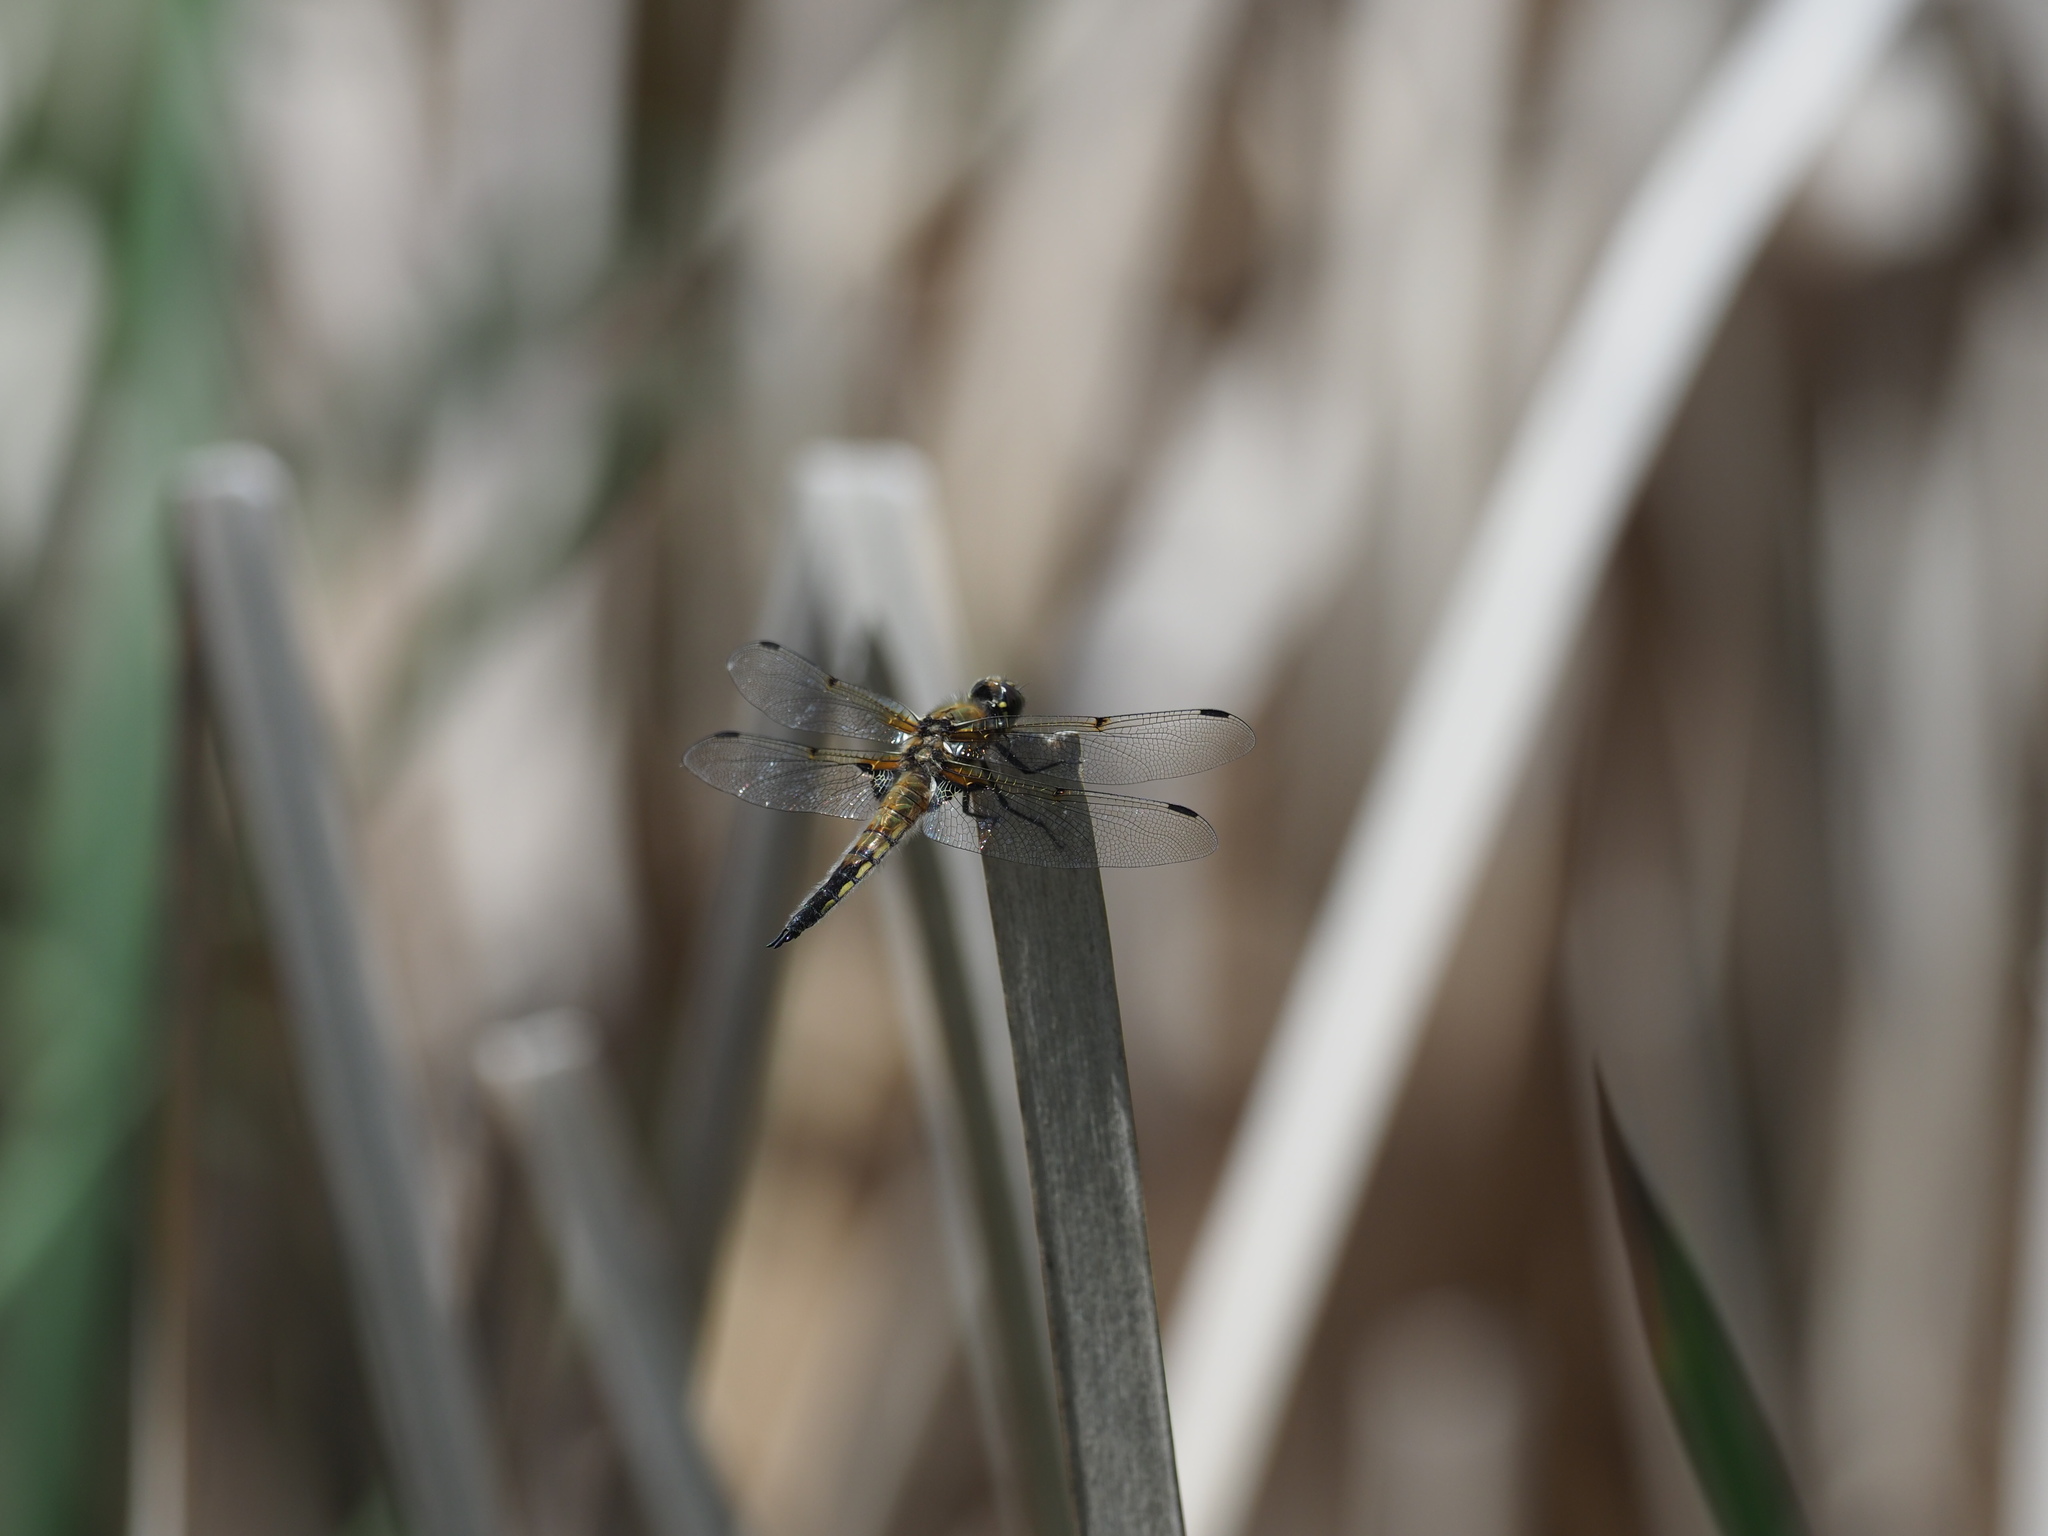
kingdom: Animalia
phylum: Arthropoda
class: Insecta
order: Odonata
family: Libellulidae
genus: Libellula
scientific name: Libellula quadrimaculata
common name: Four-spotted chaser
